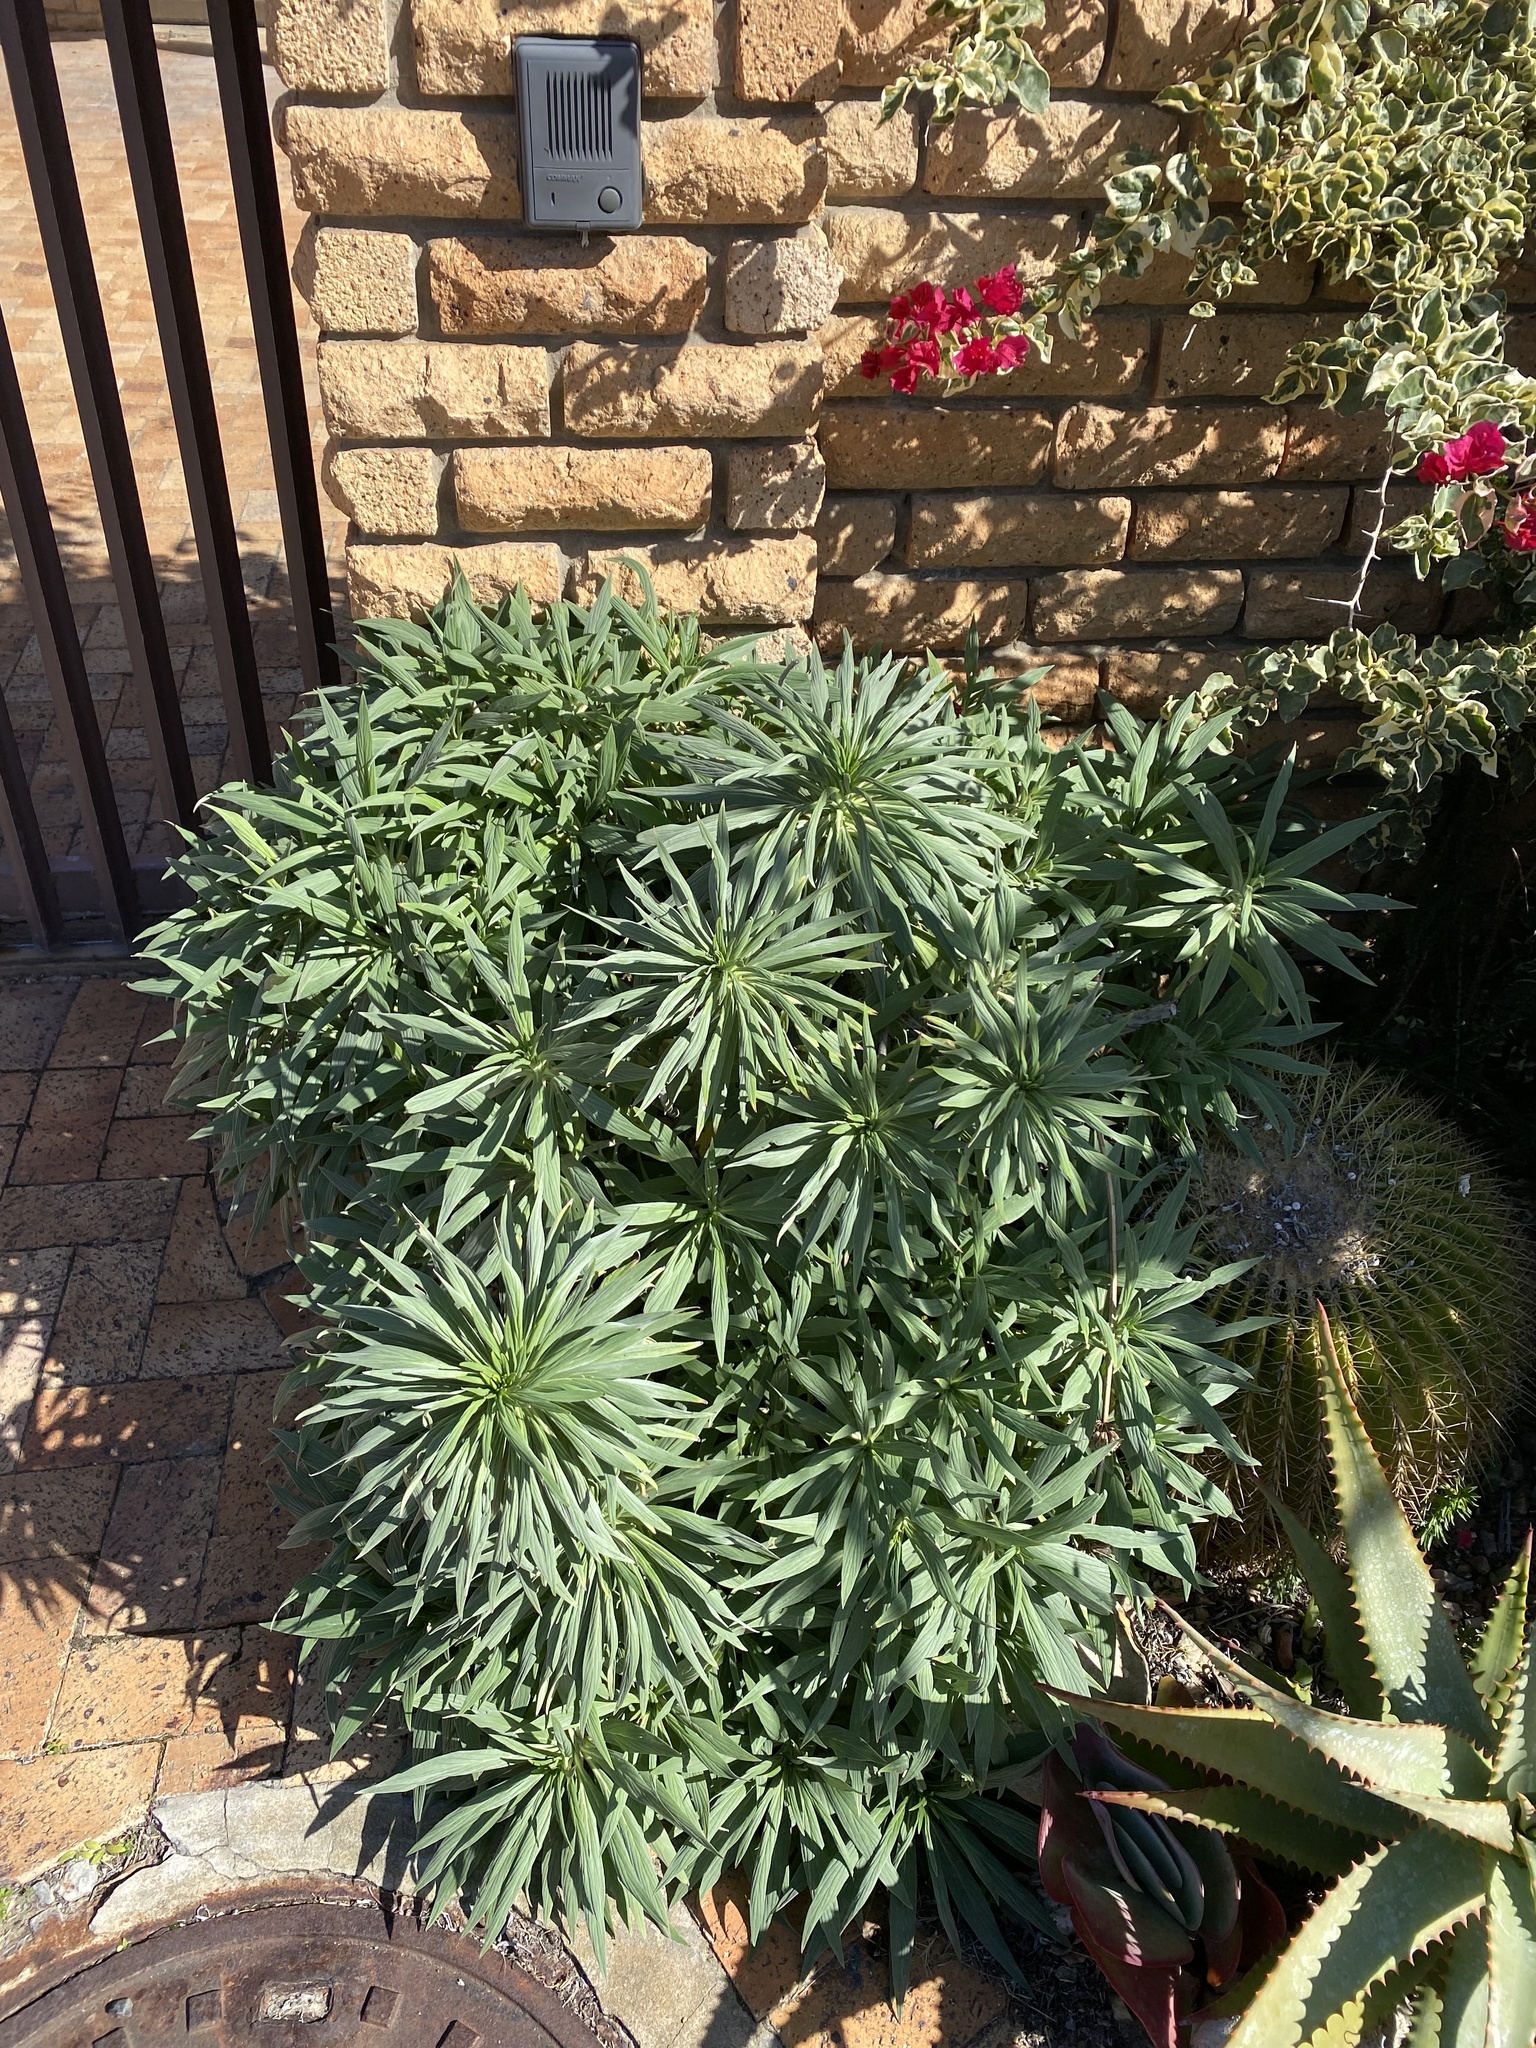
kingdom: Plantae
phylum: Tracheophyta
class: Magnoliopsida
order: Boraginales
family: Boraginaceae
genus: Echium
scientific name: Echium candicans
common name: Pride of madeira
